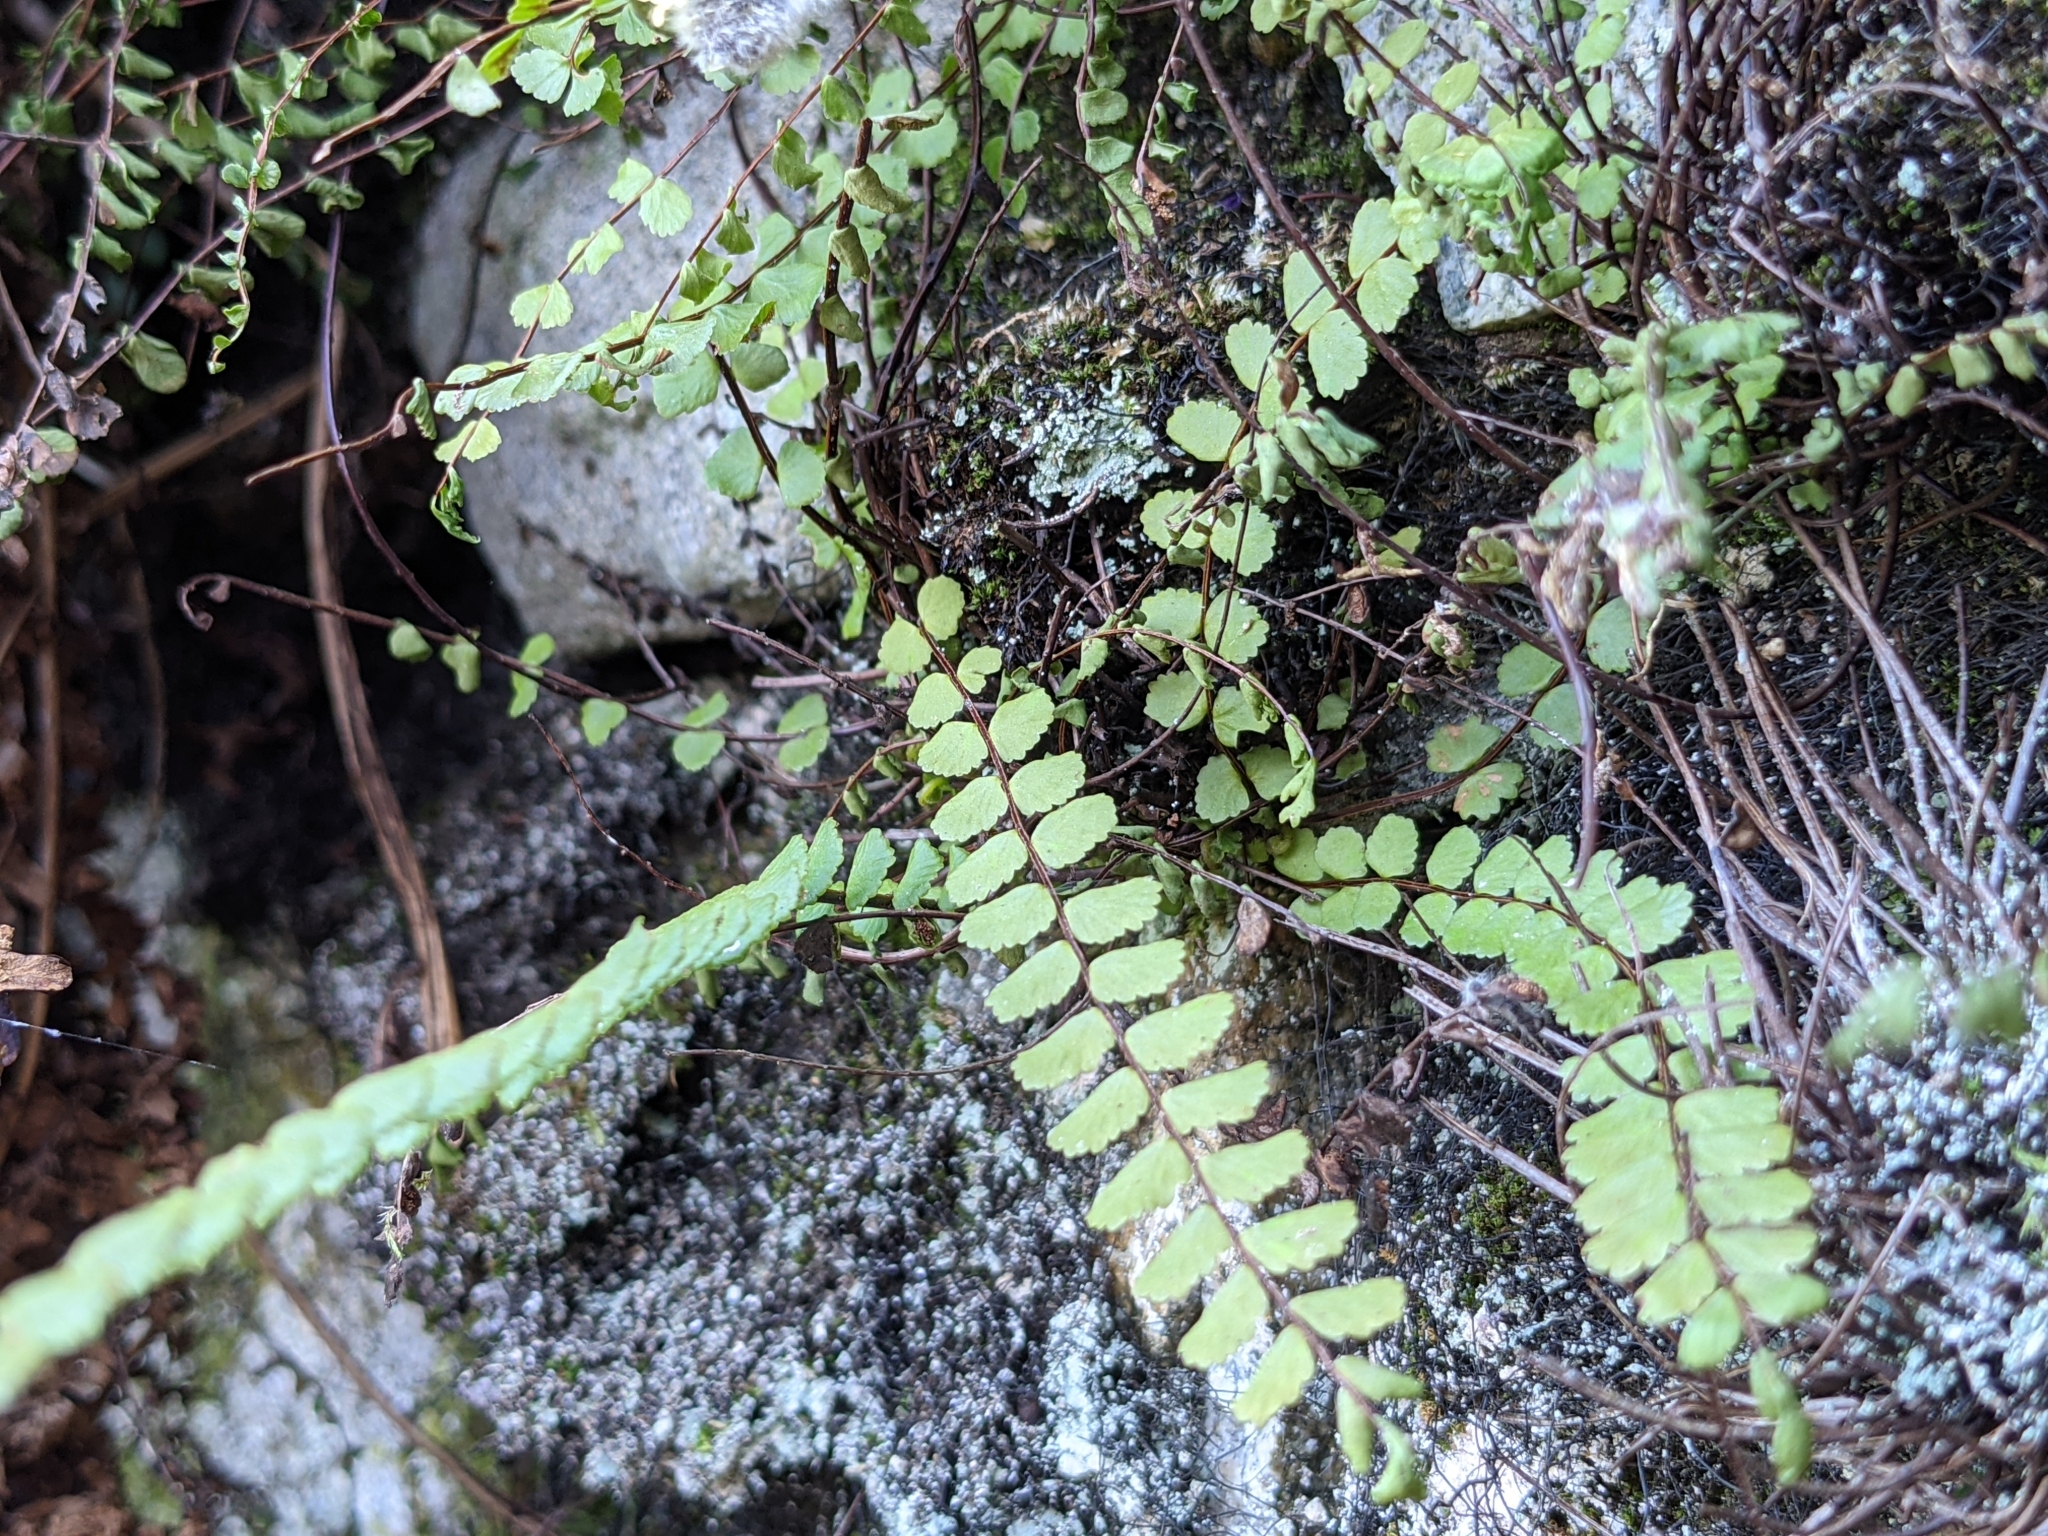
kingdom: Plantae
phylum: Tracheophyta
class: Polypodiopsida
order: Polypodiales
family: Aspleniaceae
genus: Asplenium
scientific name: Asplenium trichomanes
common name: Maidenhair spleenwort
